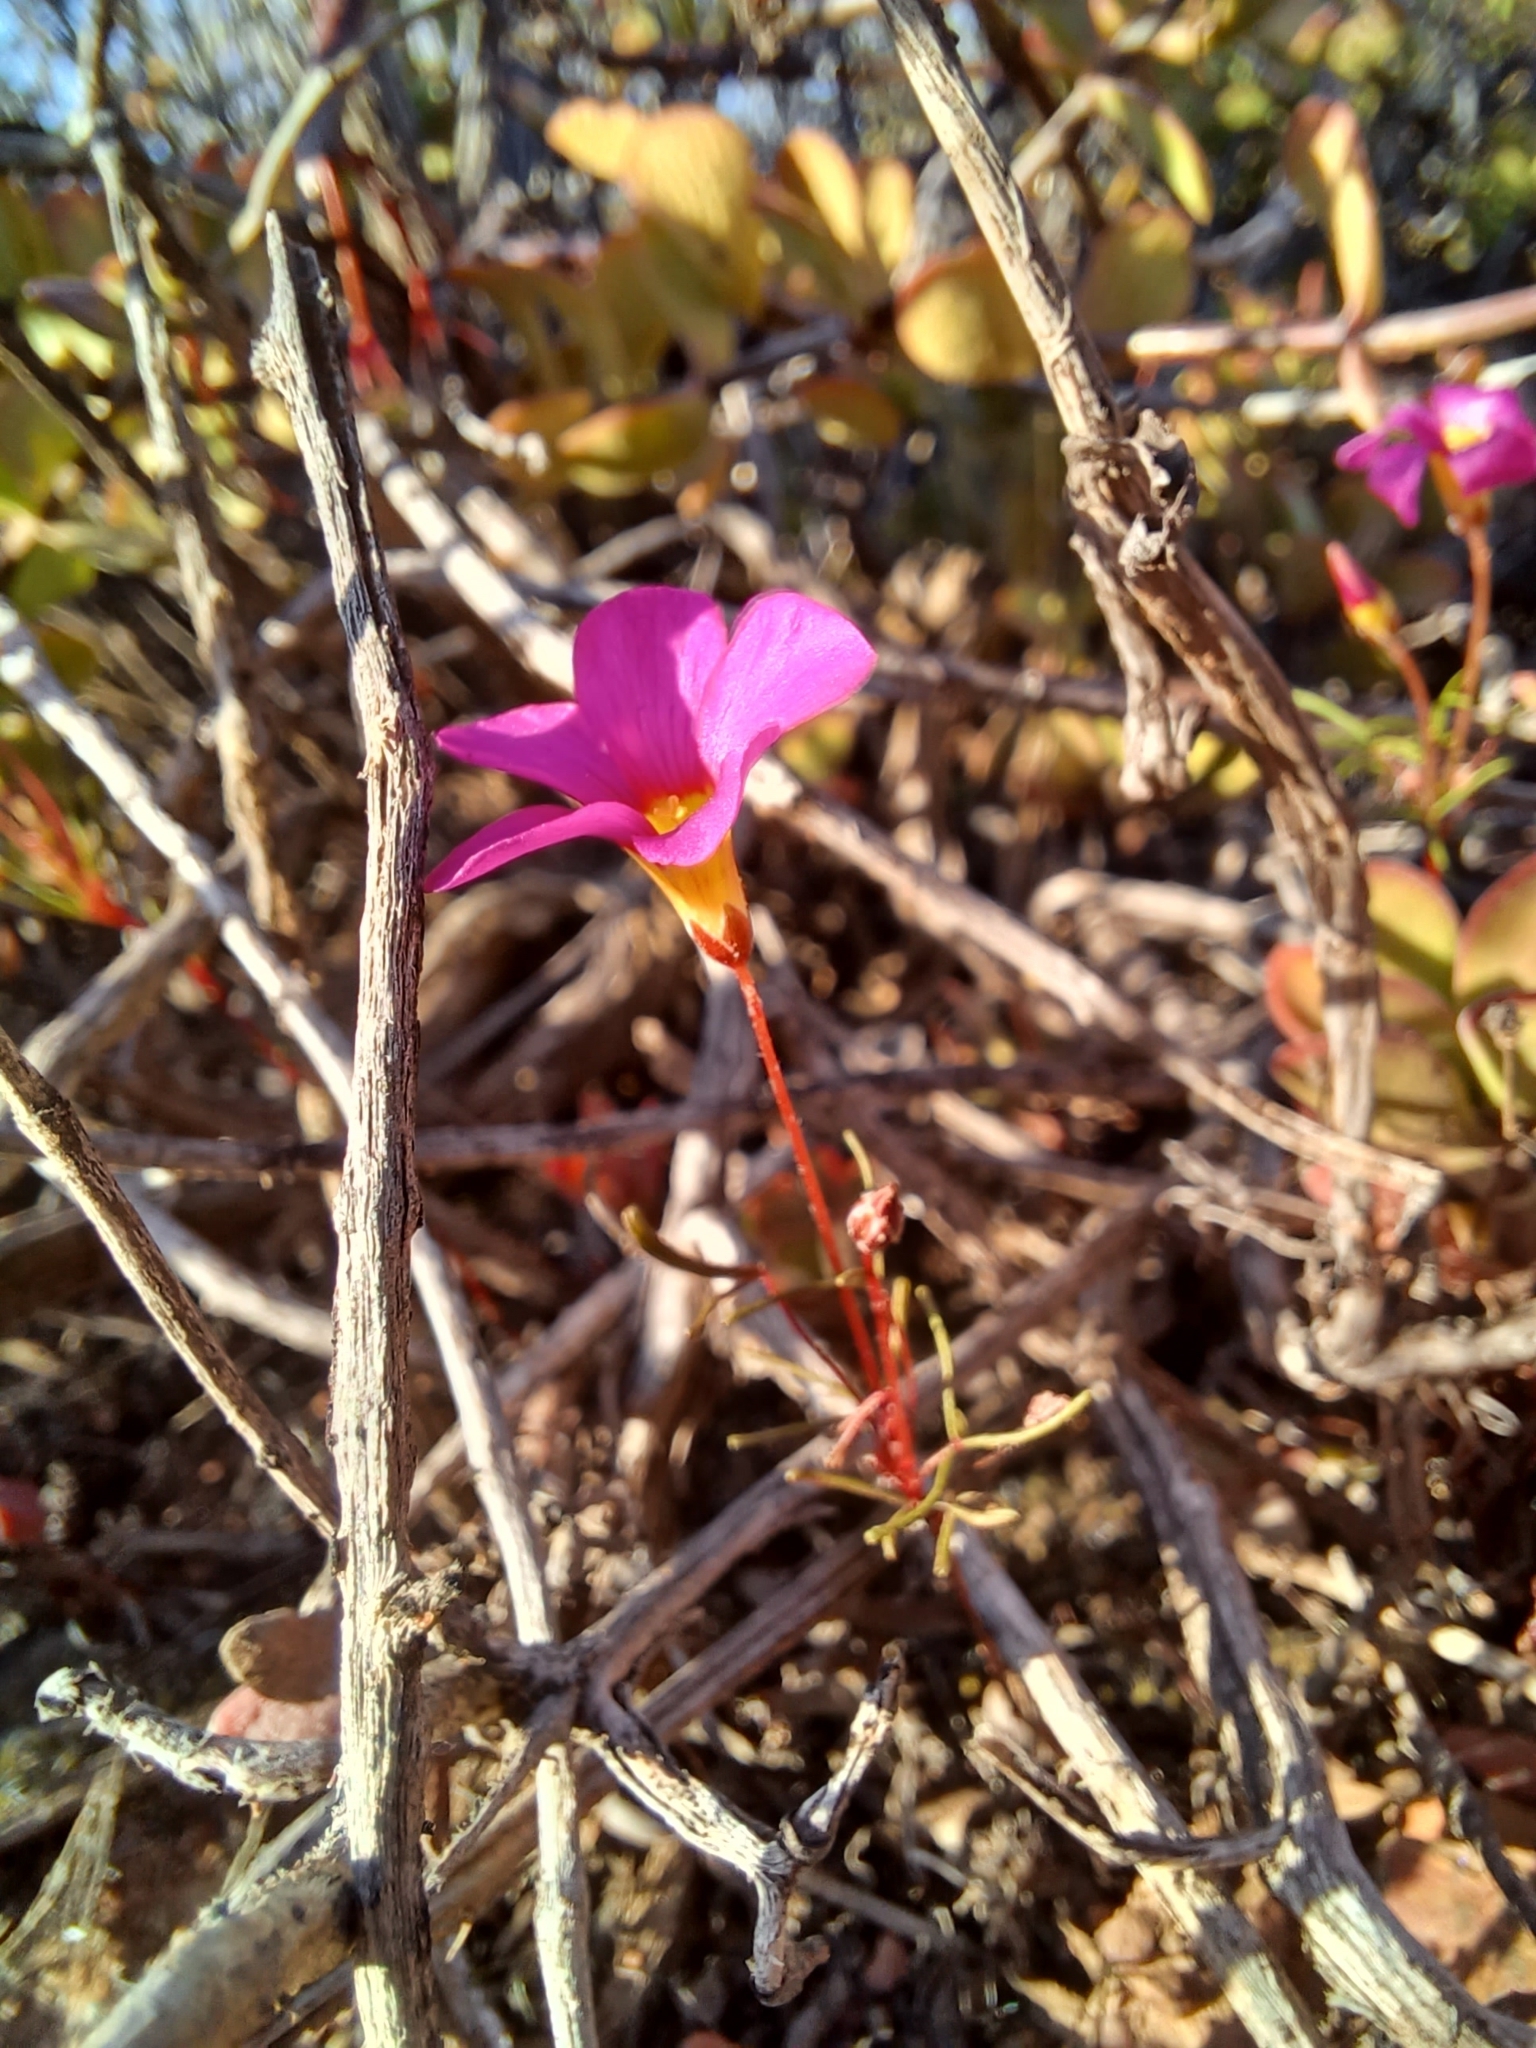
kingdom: Plantae
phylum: Tracheophyta
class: Magnoliopsida
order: Oxalidales
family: Oxalidaceae
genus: Oxalis
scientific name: Oxalis leptogramma
